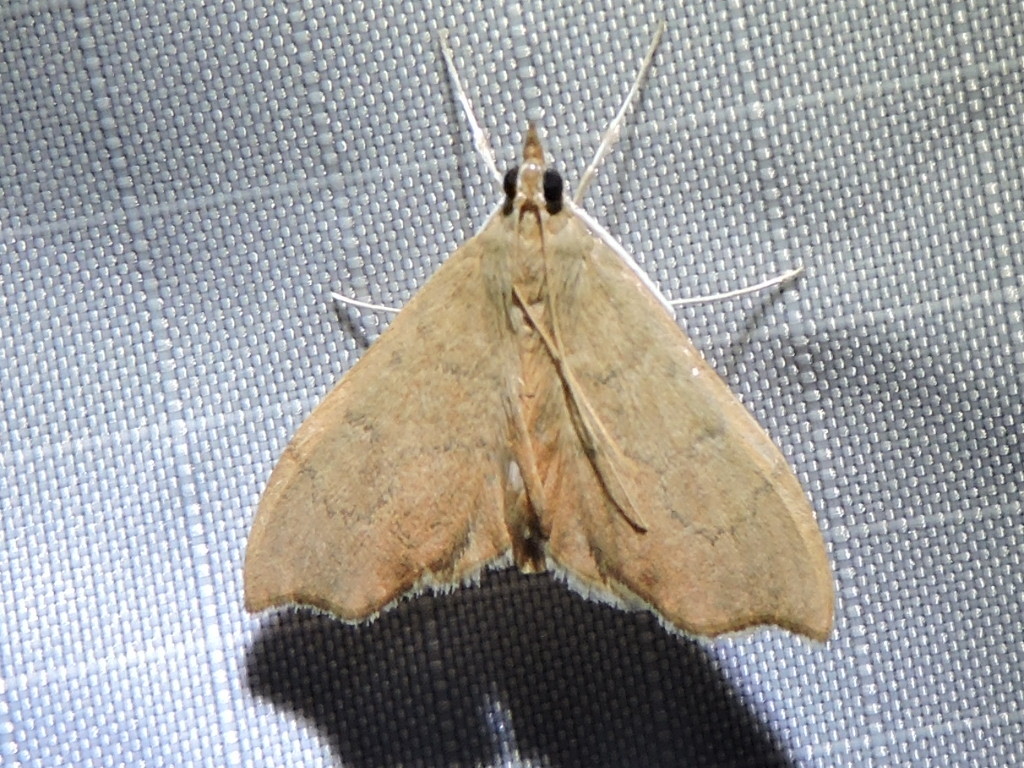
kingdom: Animalia
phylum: Arthropoda
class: Insecta
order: Lepidoptera
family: Crambidae
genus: Sericoplaga
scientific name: Sericoplaga externalis
